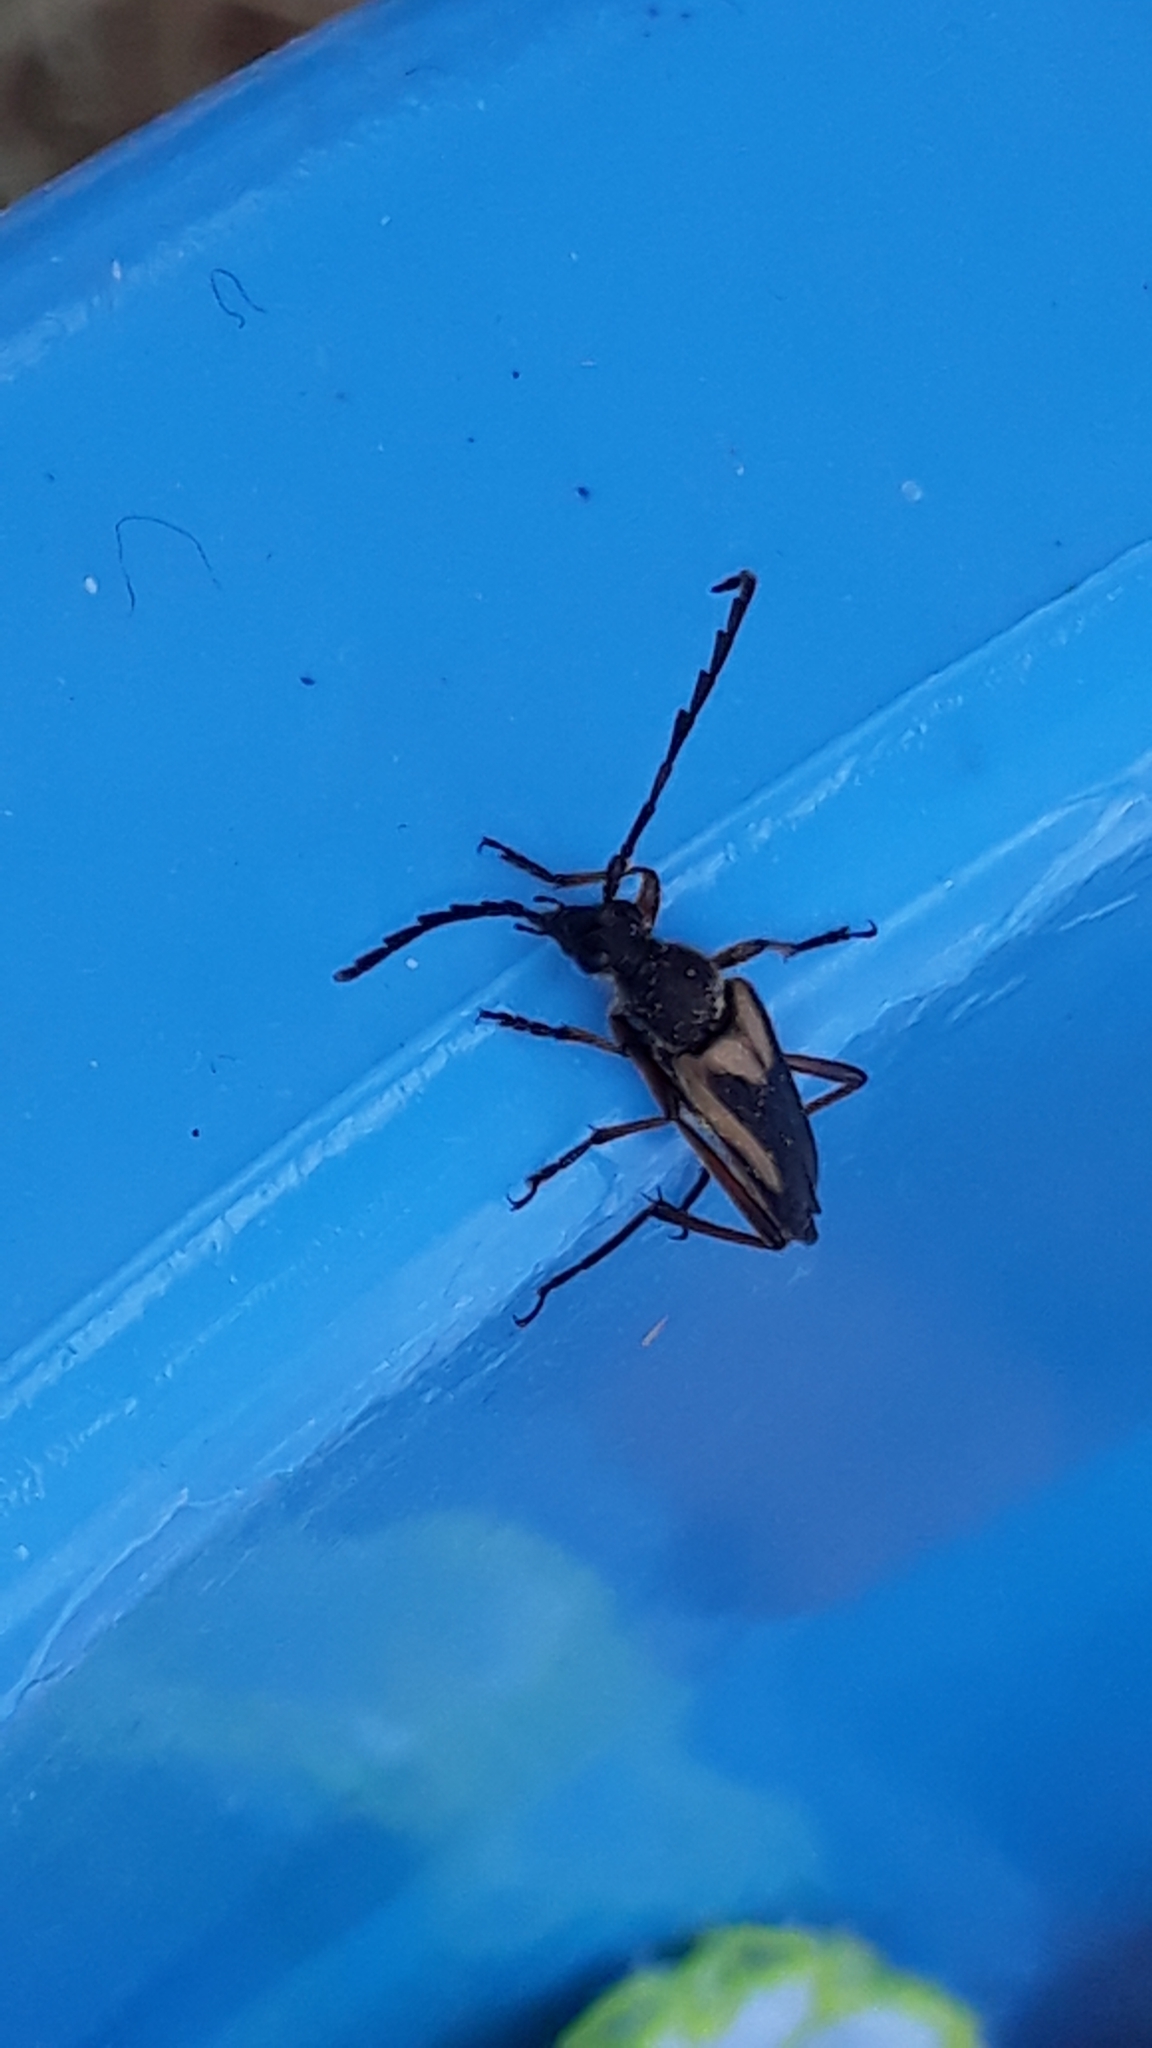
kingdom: Animalia
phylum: Arthropoda
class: Insecta
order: Coleoptera
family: Cerambycidae
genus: Stictoleptura
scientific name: Stictoleptura stragulata
